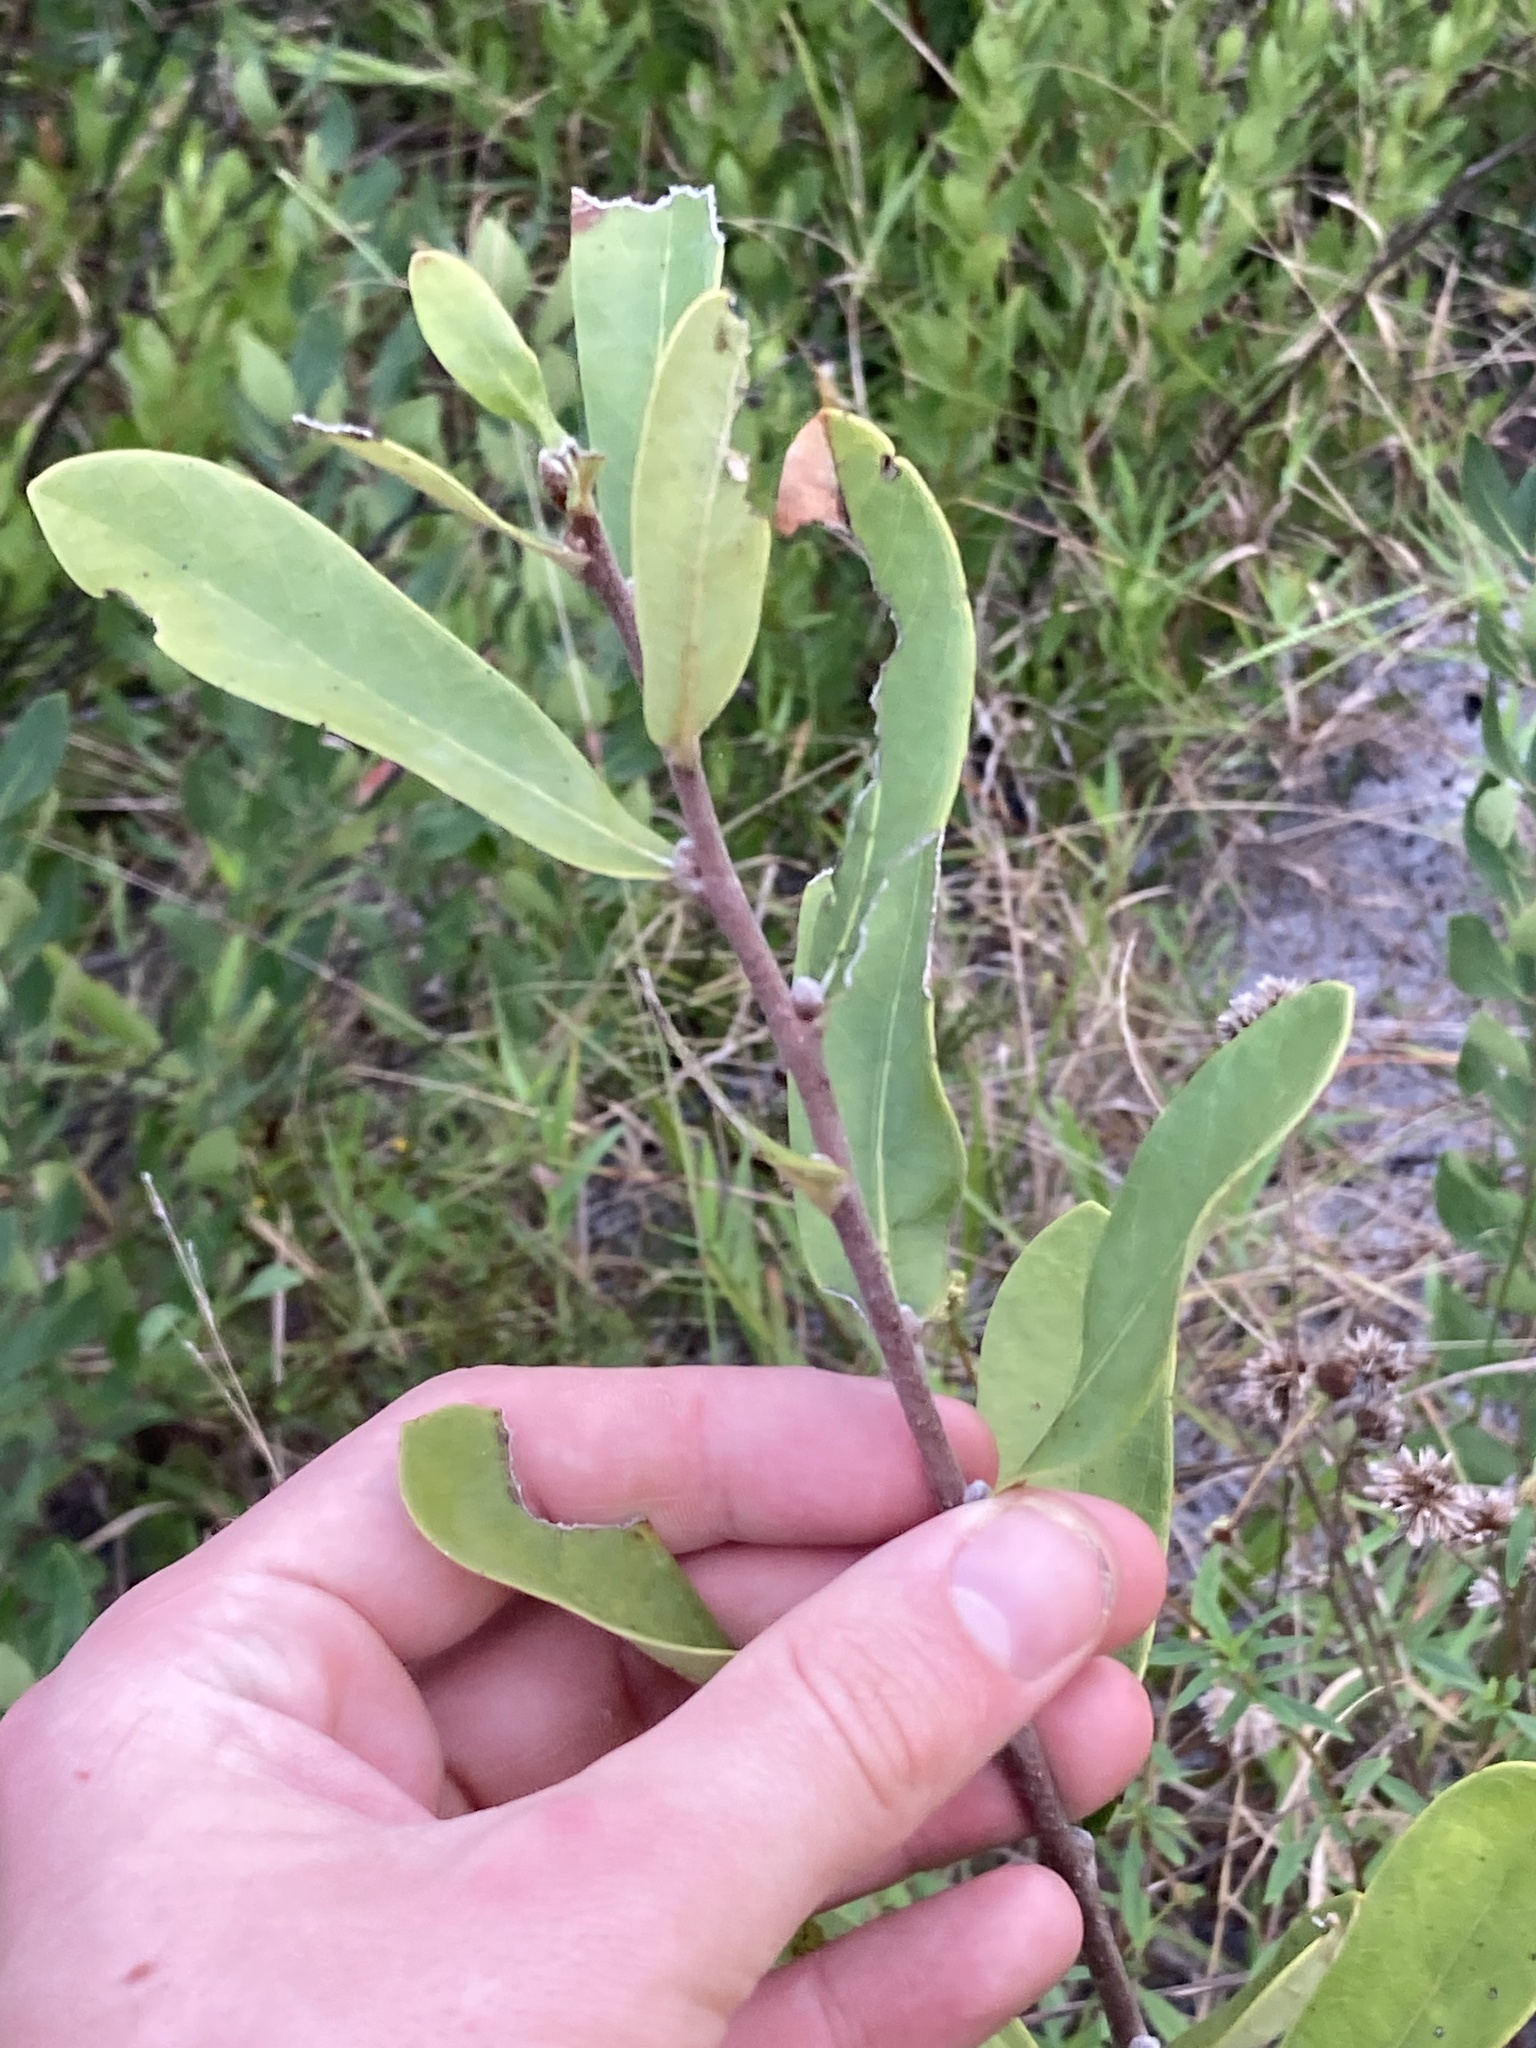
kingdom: Plantae
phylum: Tracheophyta
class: Magnoliopsida
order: Magnoliales
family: Annonaceae
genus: Asimina
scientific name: Asimina reticulata
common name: Flag pawpaw
